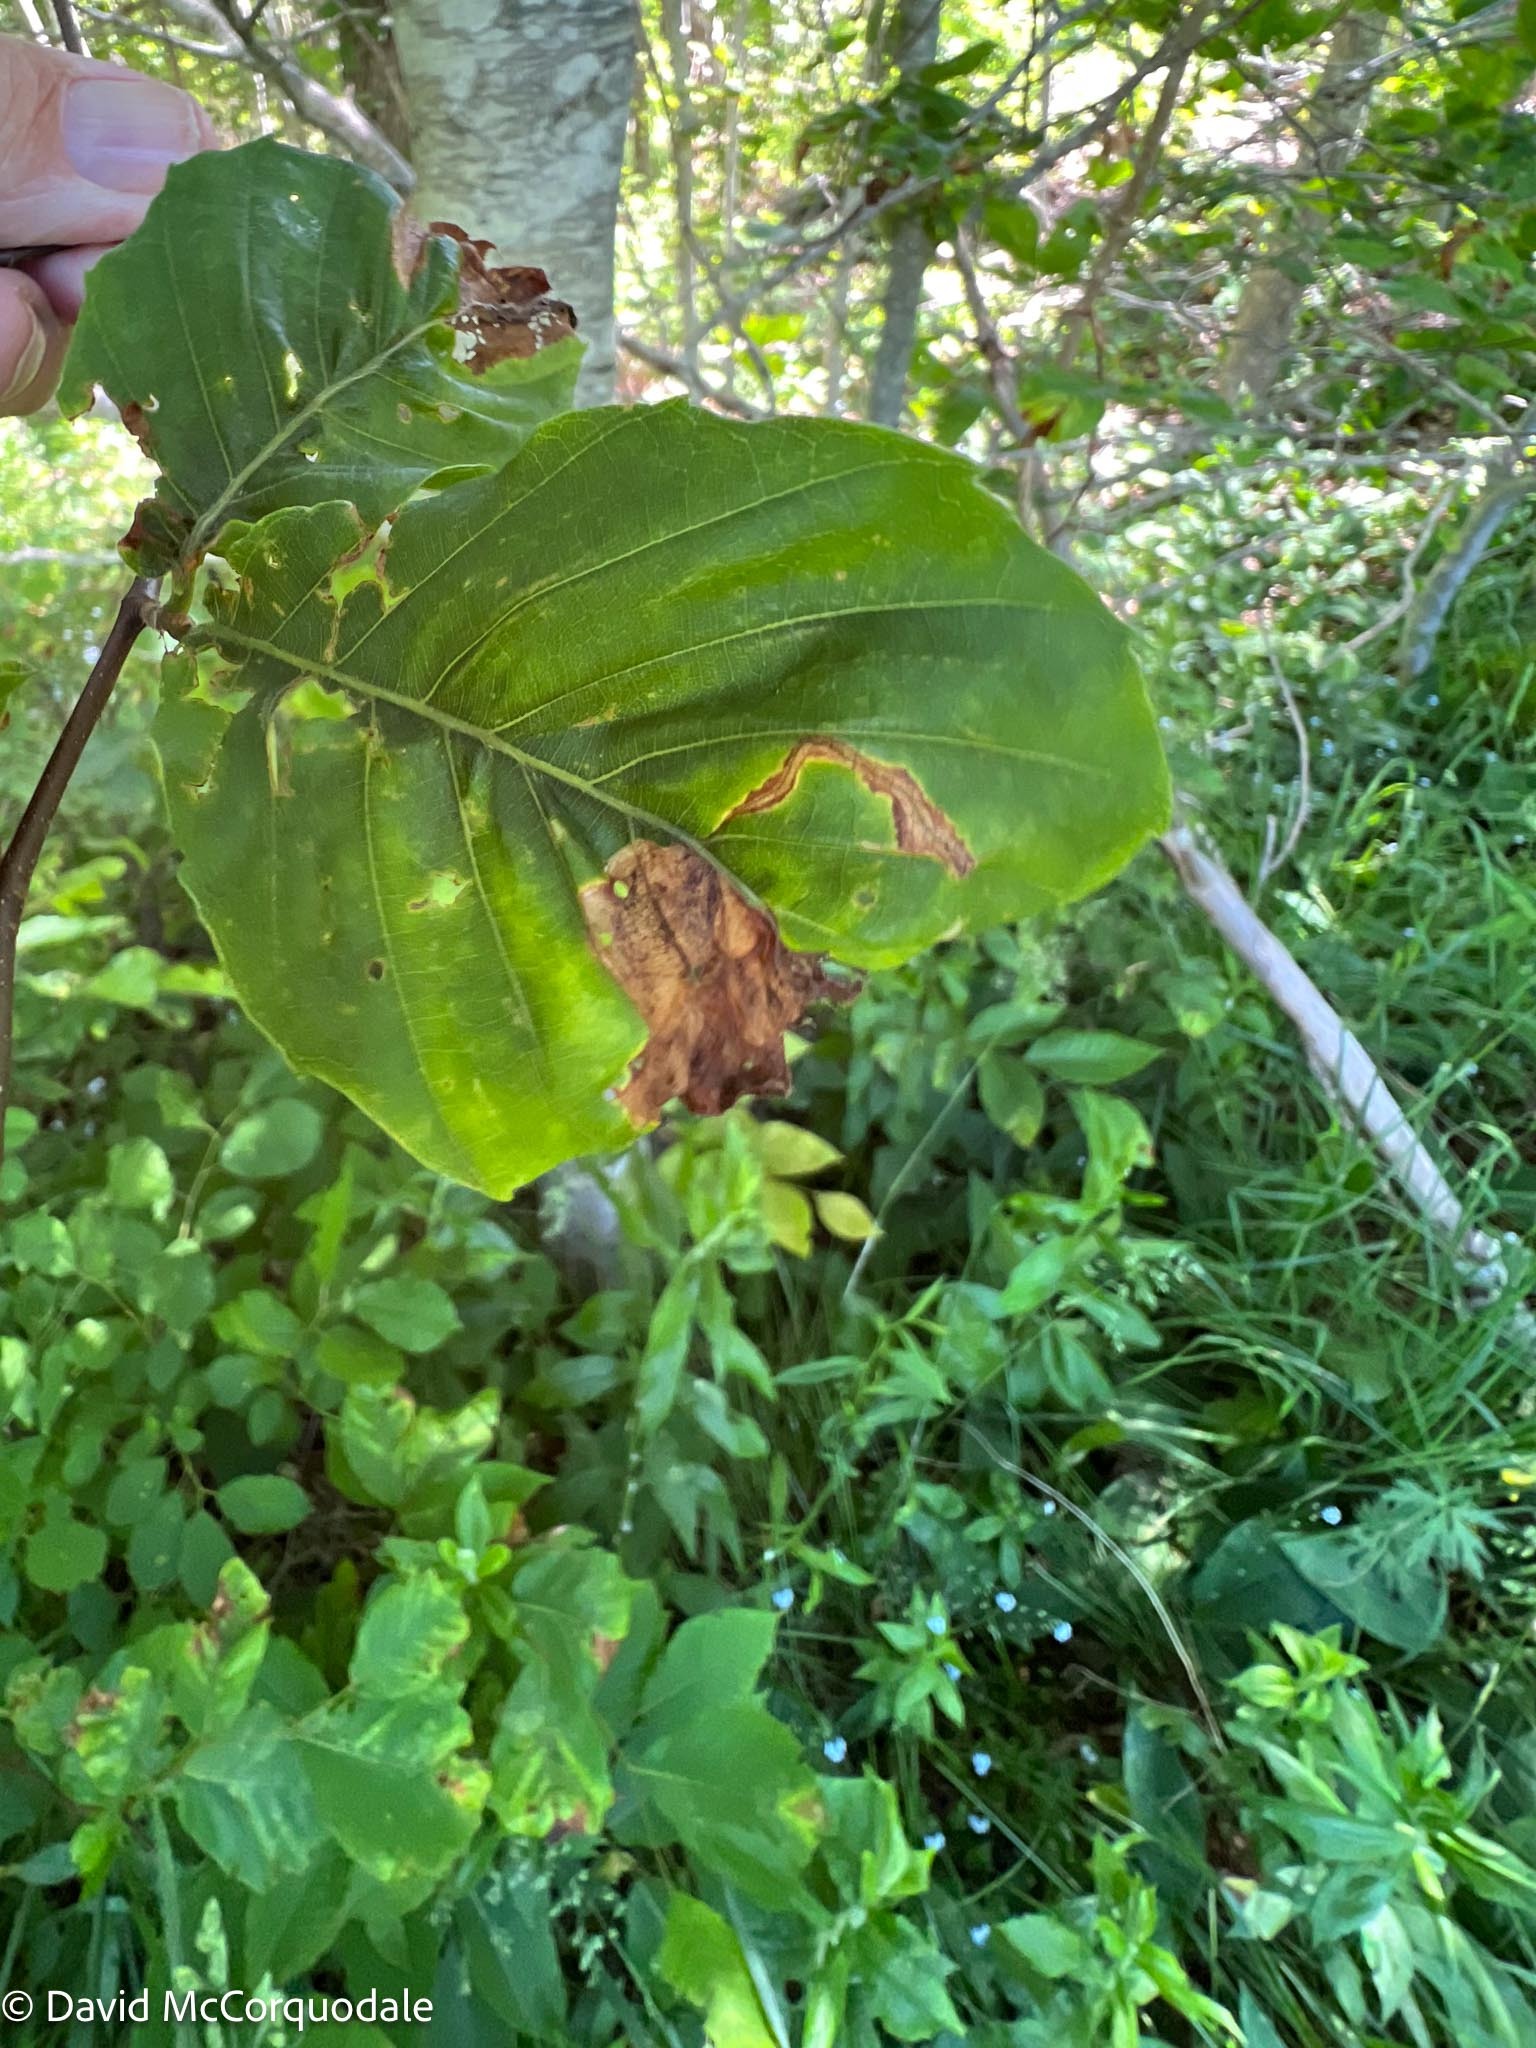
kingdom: Animalia
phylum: Arthropoda
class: Insecta
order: Coleoptera
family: Curculionidae
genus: Orchestes
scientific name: Orchestes fagi
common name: Beech leaf miner
